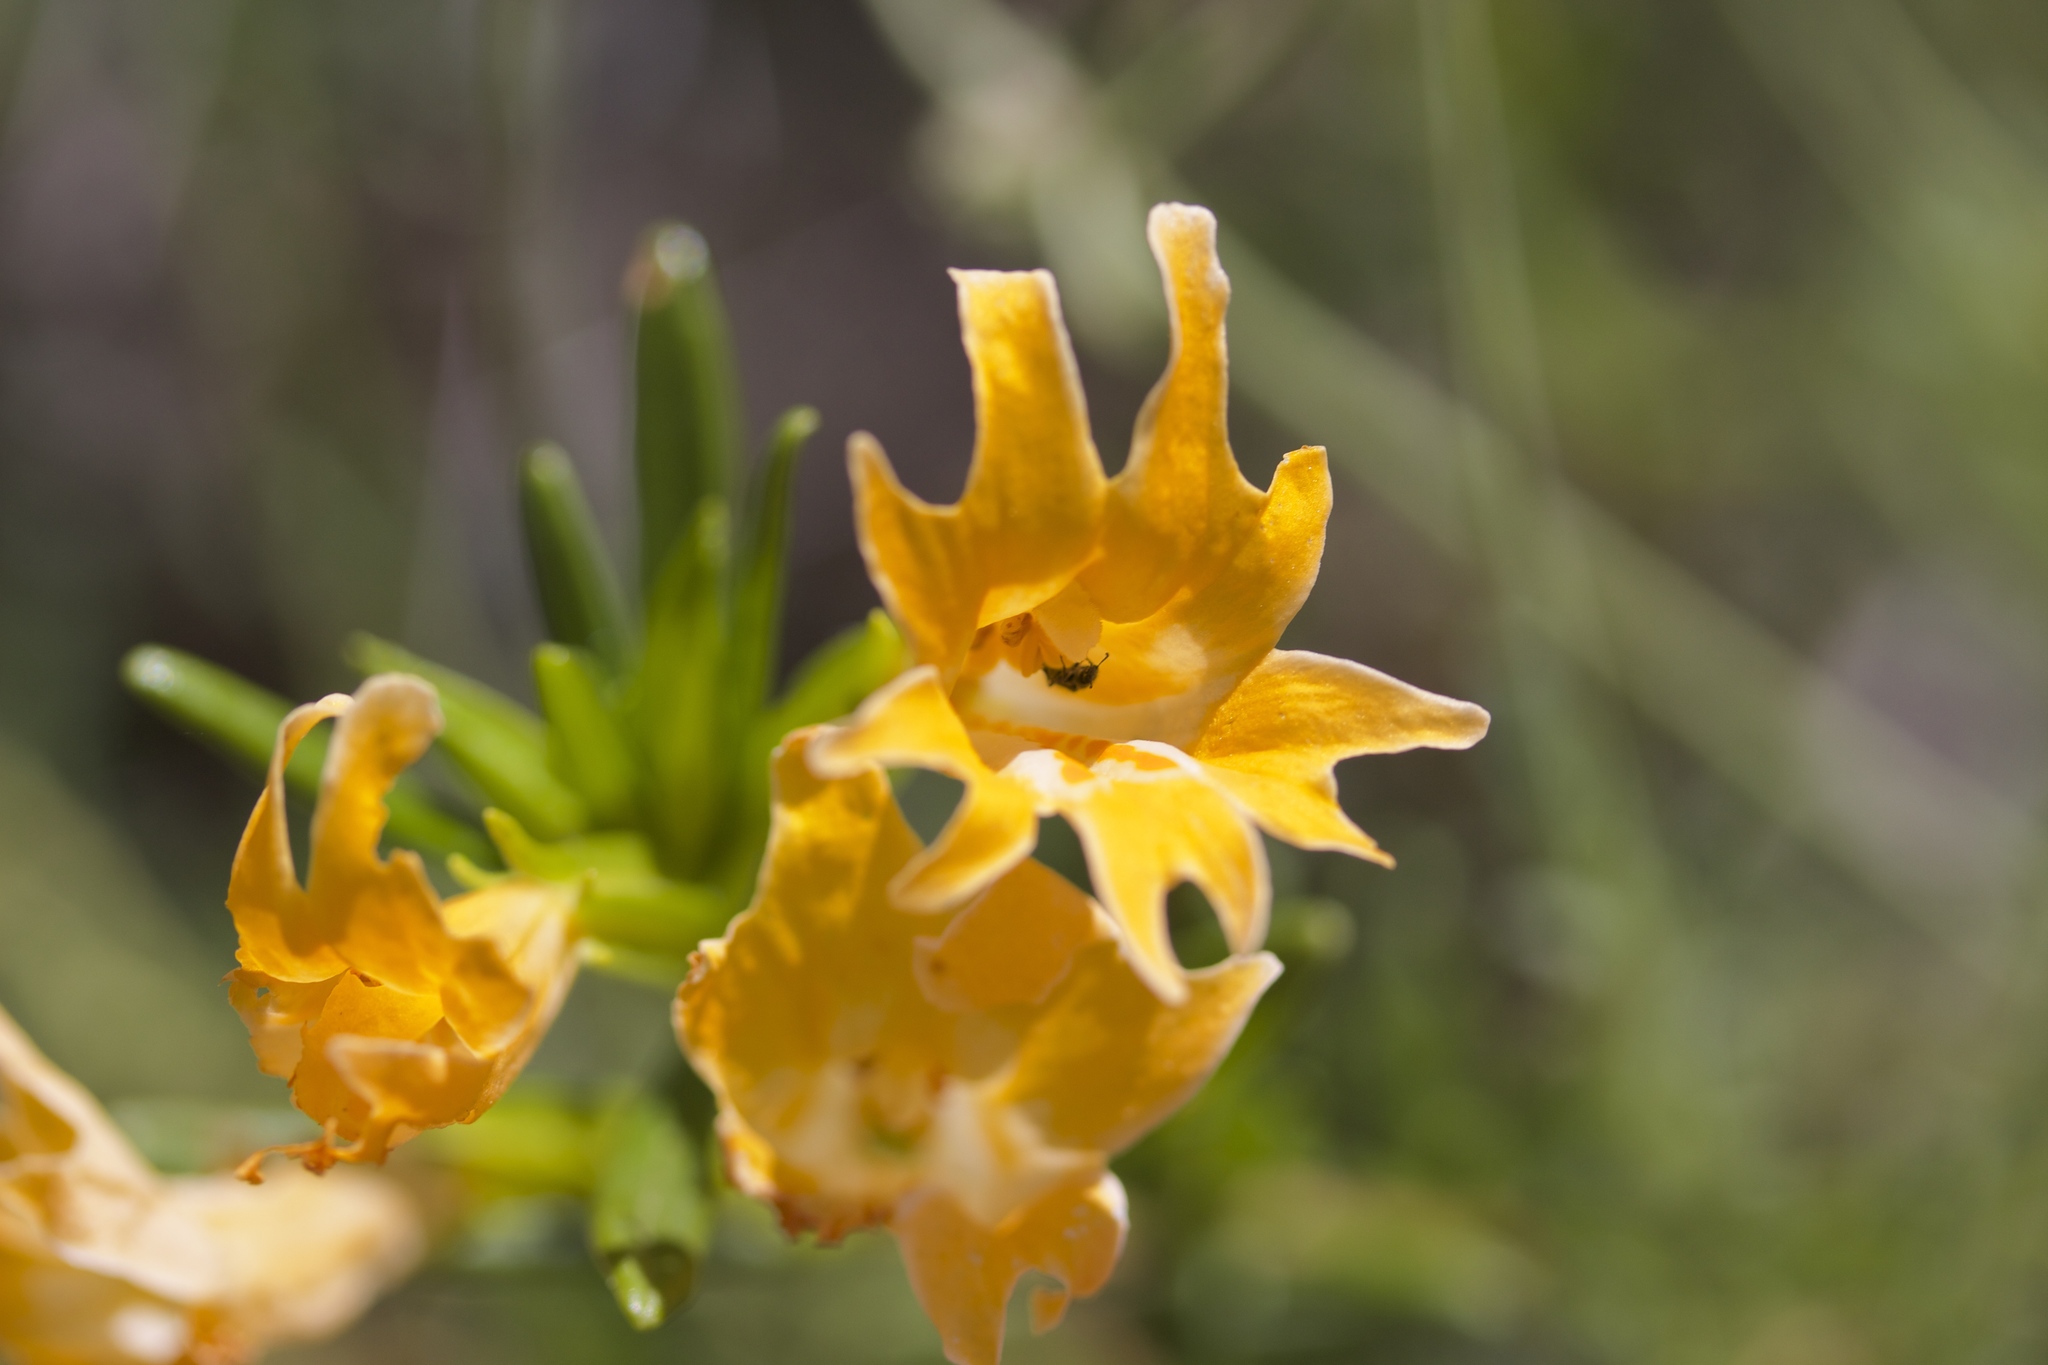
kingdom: Plantae
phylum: Tracheophyta
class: Magnoliopsida
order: Lamiales
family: Phrymaceae
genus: Diplacus
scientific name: Diplacus linearis
